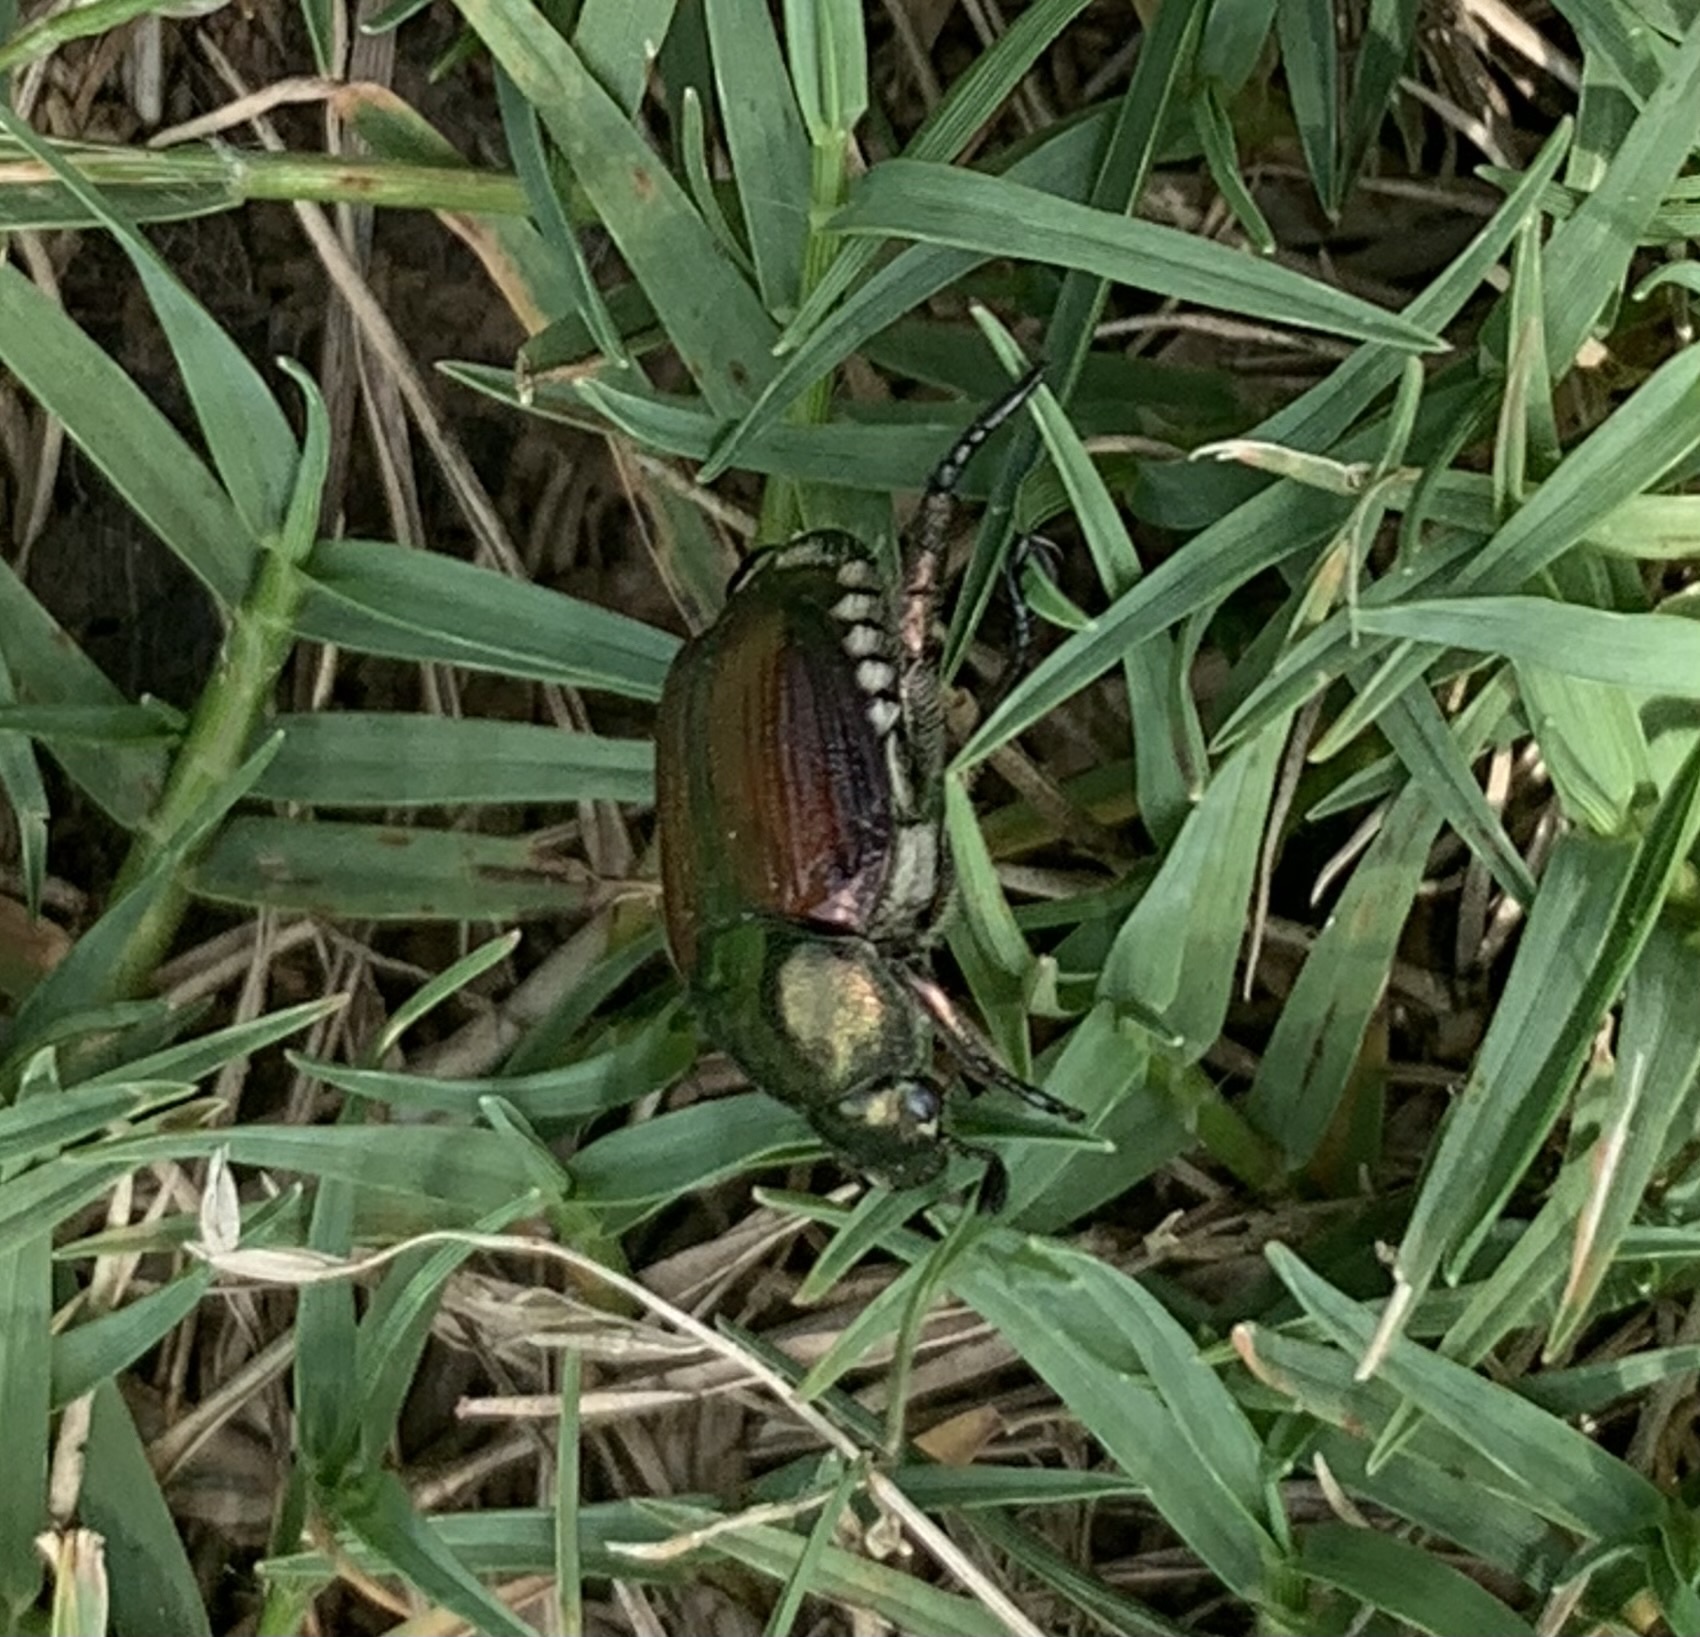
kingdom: Animalia
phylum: Arthropoda
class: Insecta
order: Coleoptera
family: Scarabaeidae
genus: Popillia
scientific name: Popillia japonica
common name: Japanese beetle
